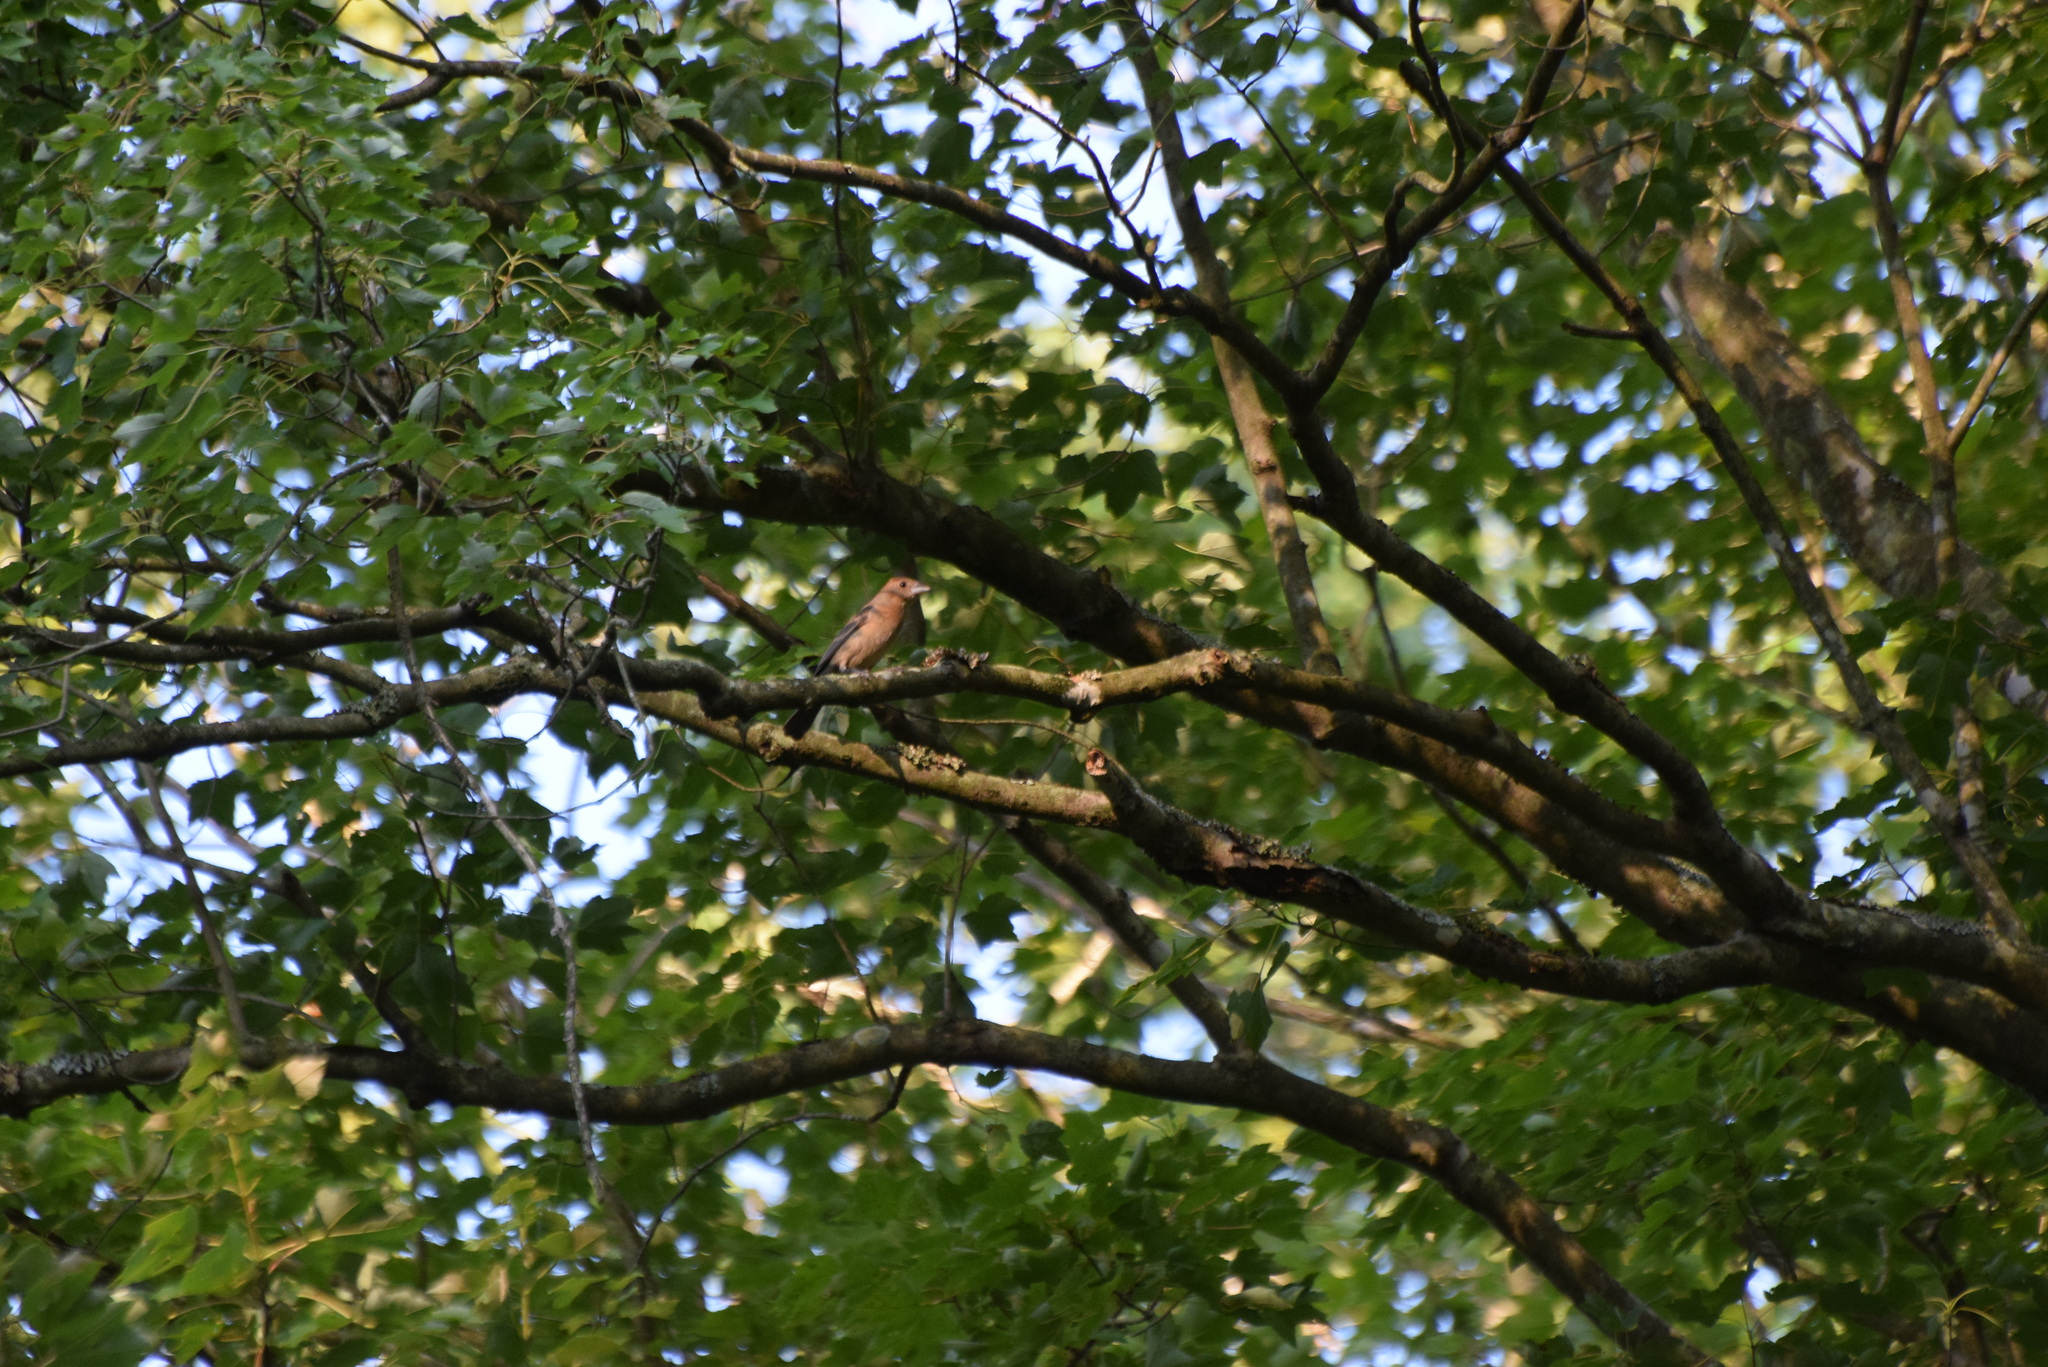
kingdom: Animalia
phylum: Chordata
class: Aves
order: Passeriformes
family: Cardinalidae
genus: Passerina
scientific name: Passerina caerulea
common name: Blue grosbeak
